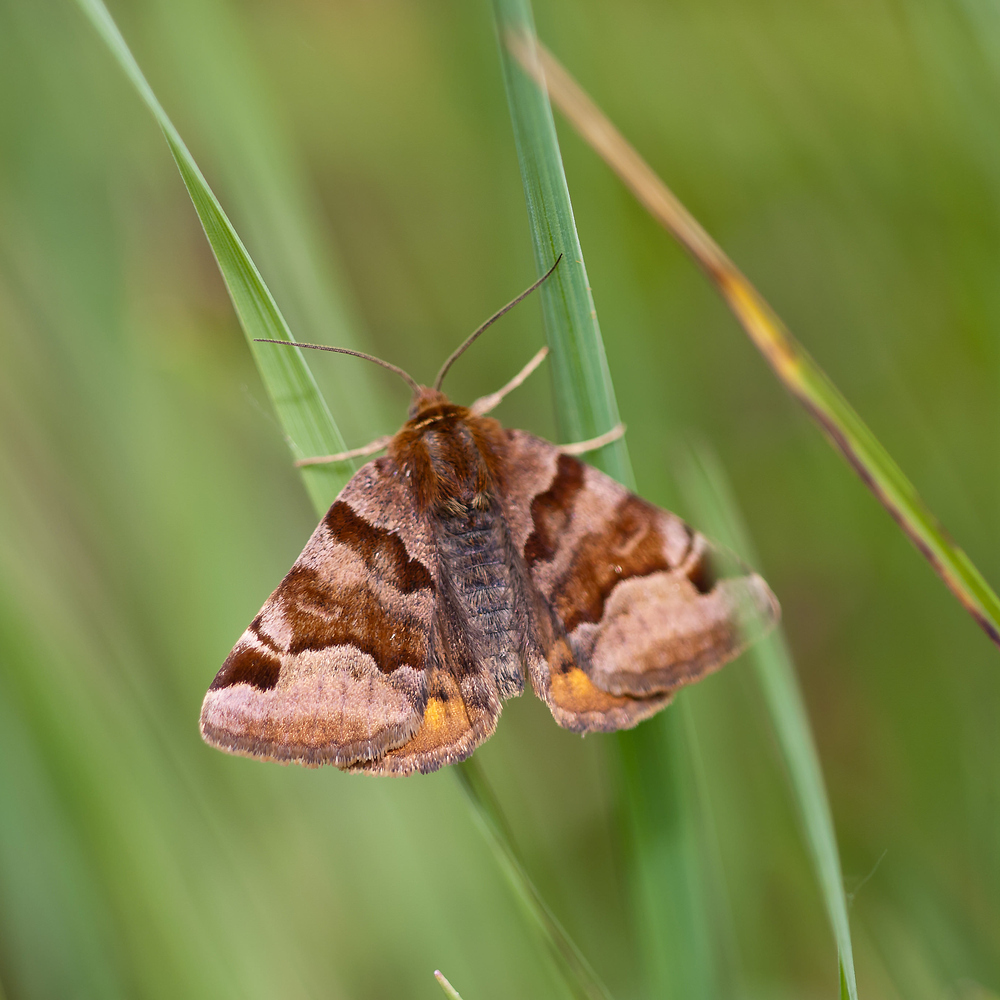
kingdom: Animalia
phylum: Arthropoda
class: Insecta
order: Lepidoptera
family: Erebidae
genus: Euclidia
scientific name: Euclidia glyphica
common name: Burnet companion
